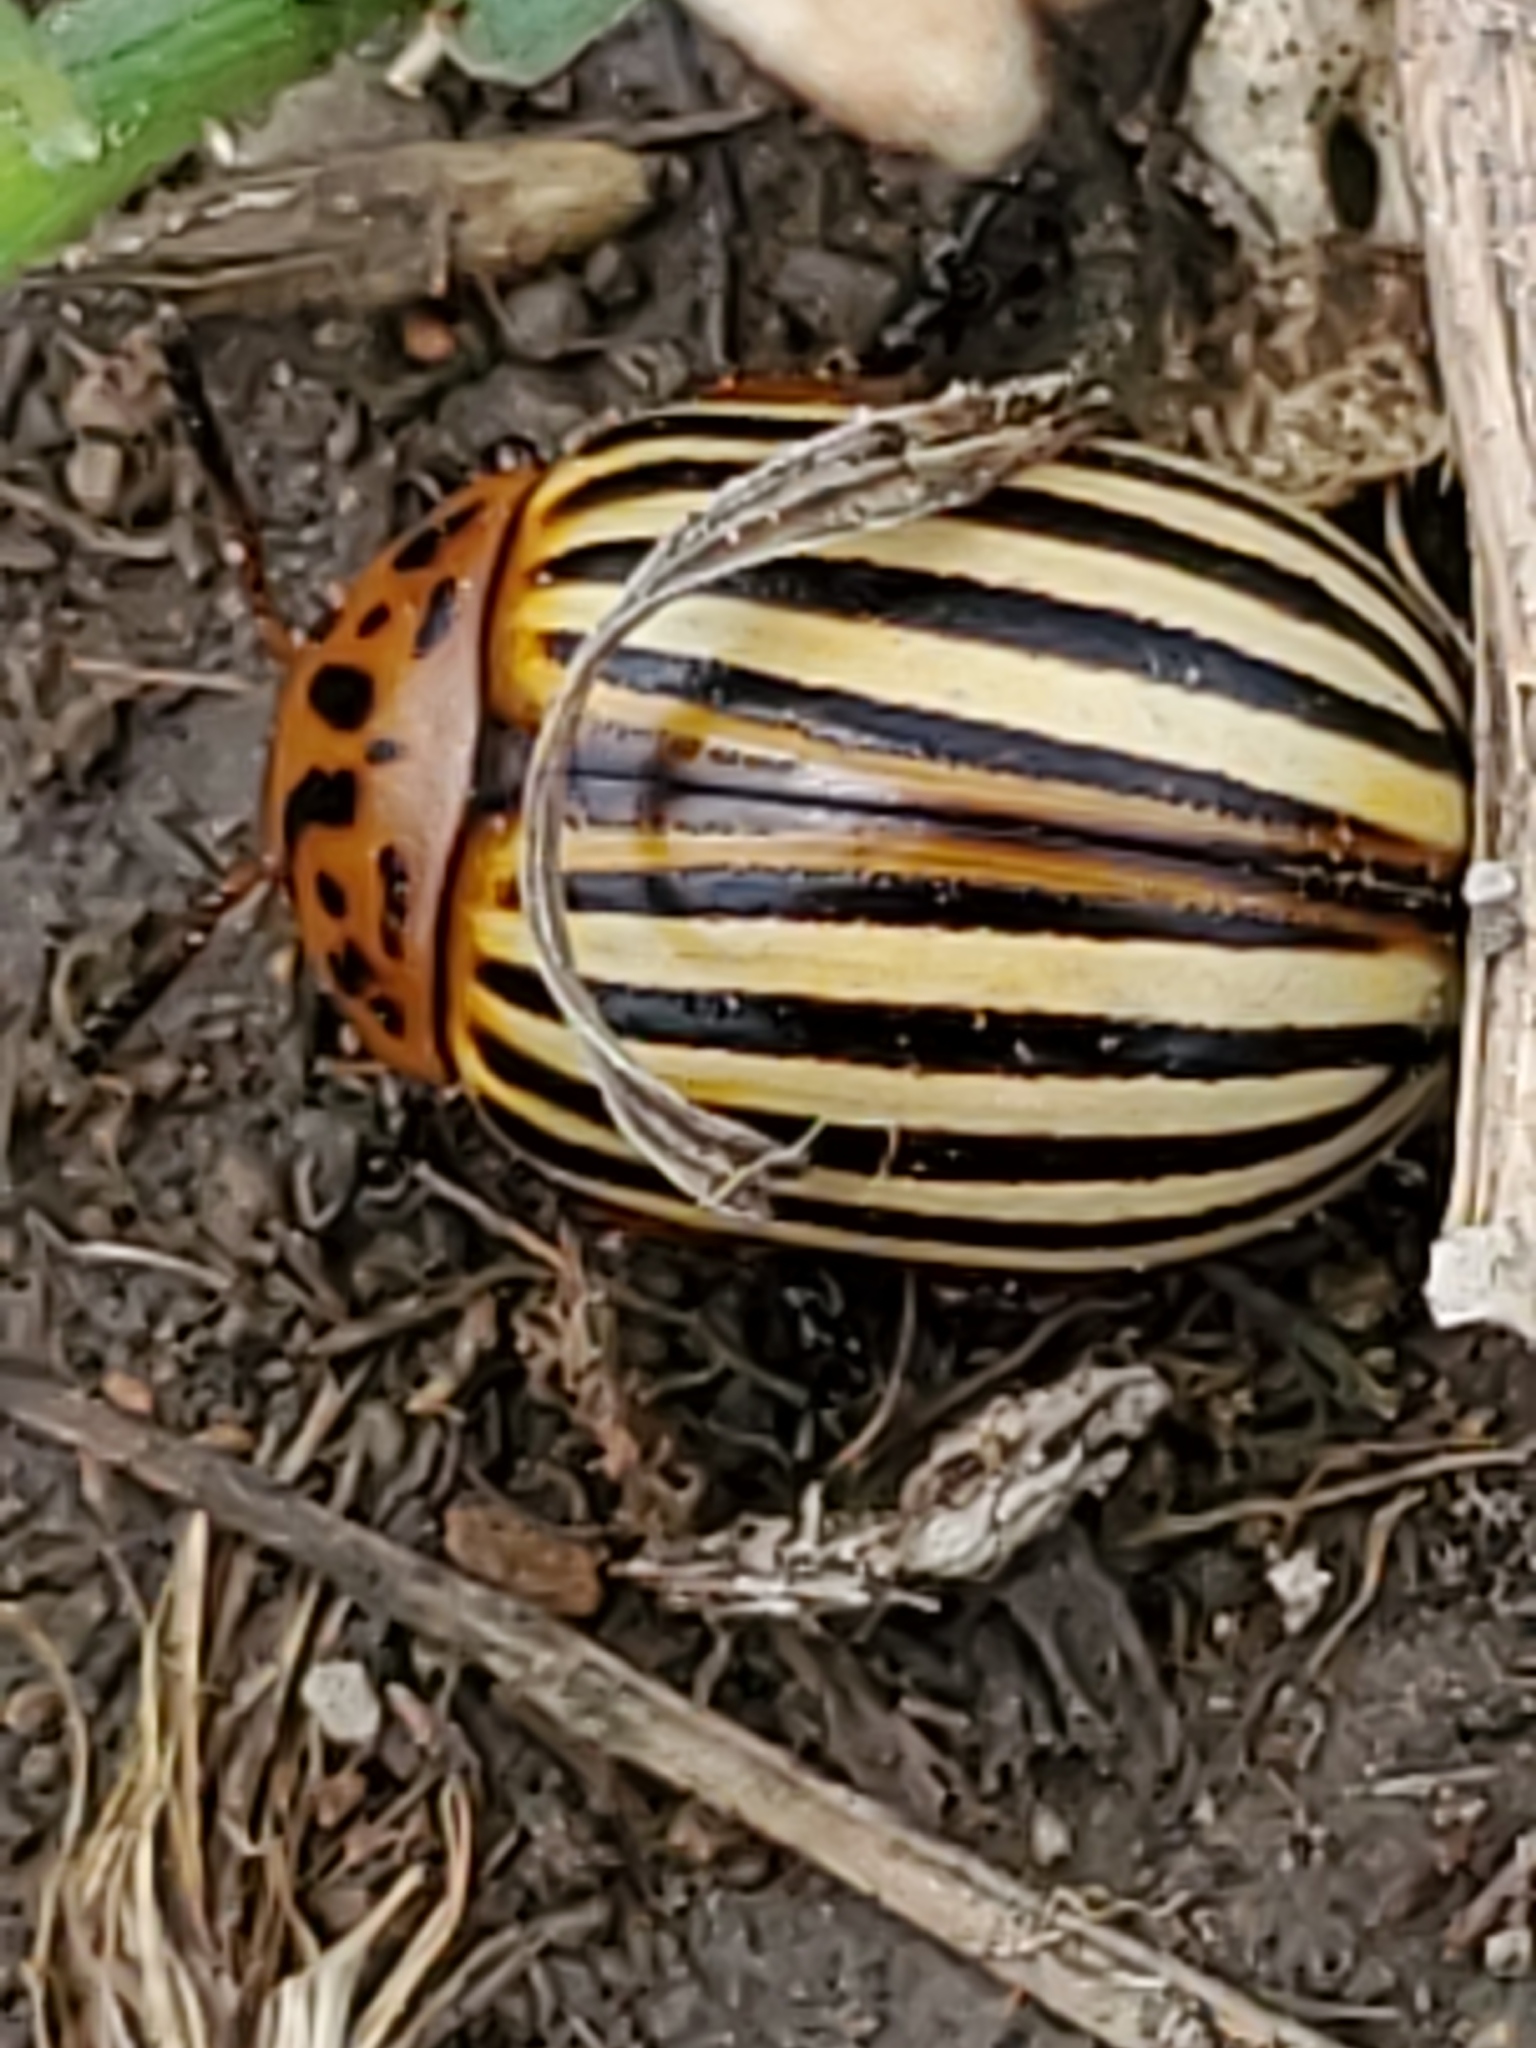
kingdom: Animalia
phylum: Arthropoda
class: Insecta
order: Coleoptera
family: Chrysomelidae
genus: Leptinotarsa
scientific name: Leptinotarsa decemlineata
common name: Colorado potato beetle
